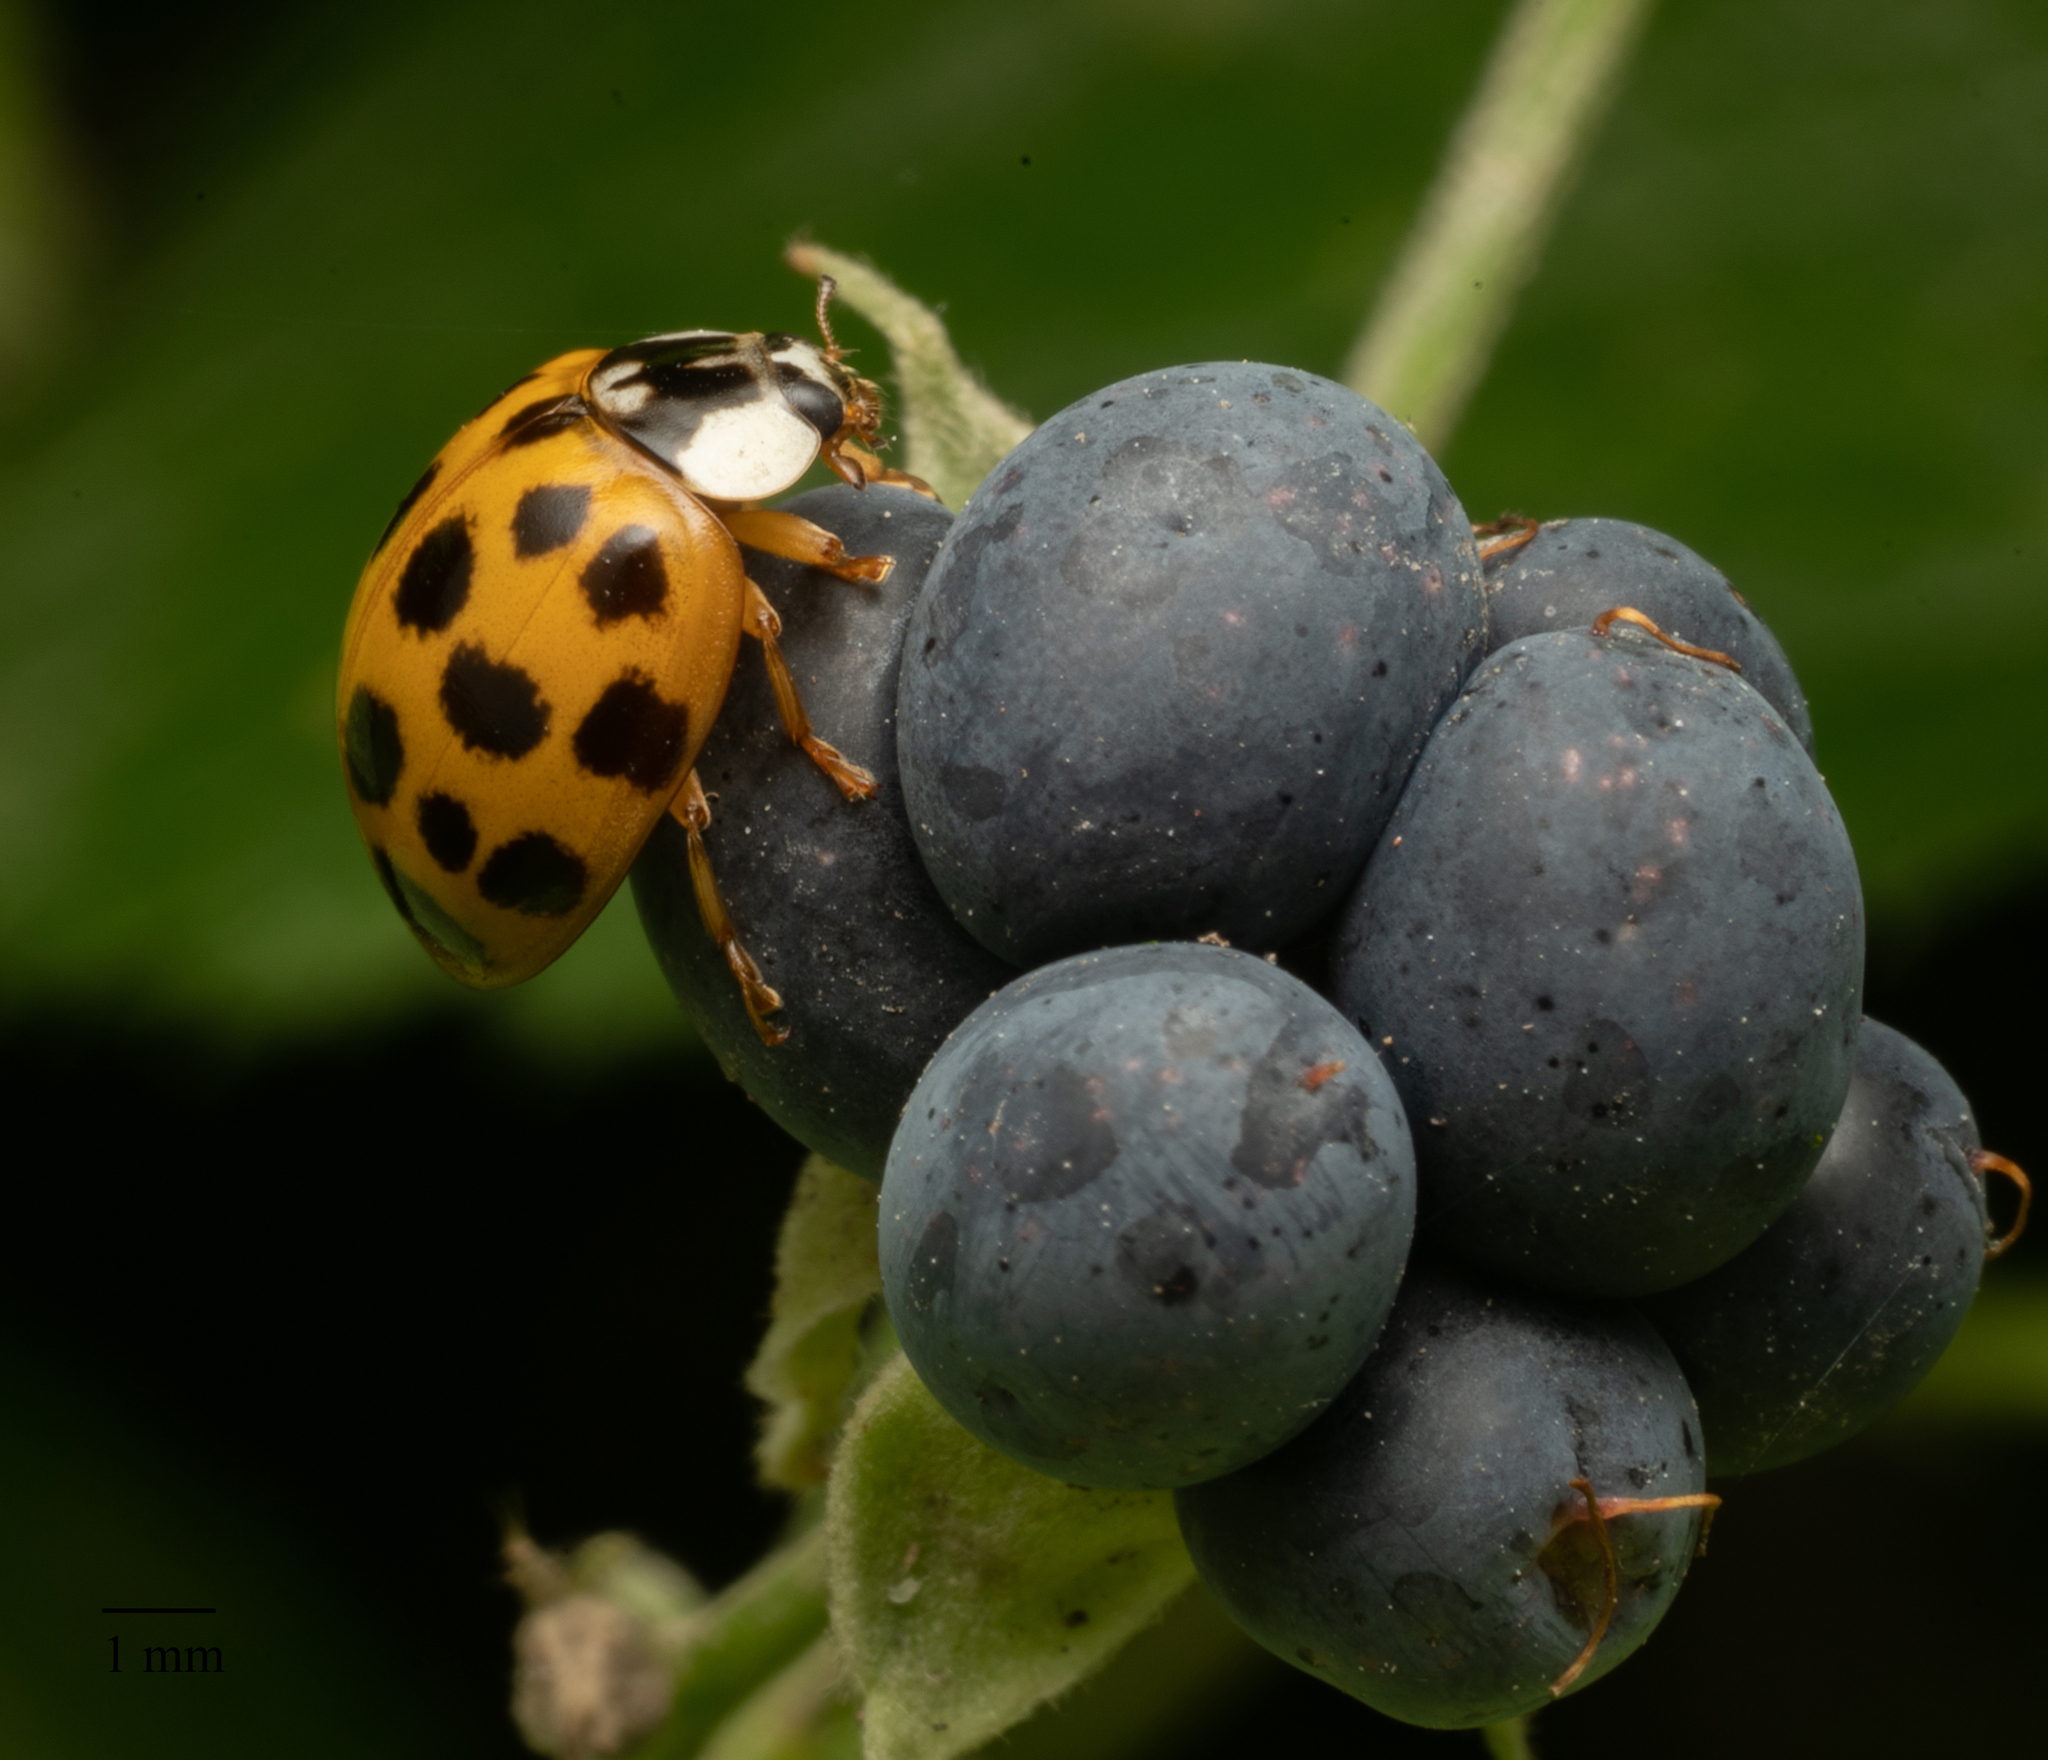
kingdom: Animalia
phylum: Arthropoda
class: Insecta
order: Coleoptera
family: Coccinellidae
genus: Harmonia
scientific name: Harmonia axyridis
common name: Harlequin ladybird
